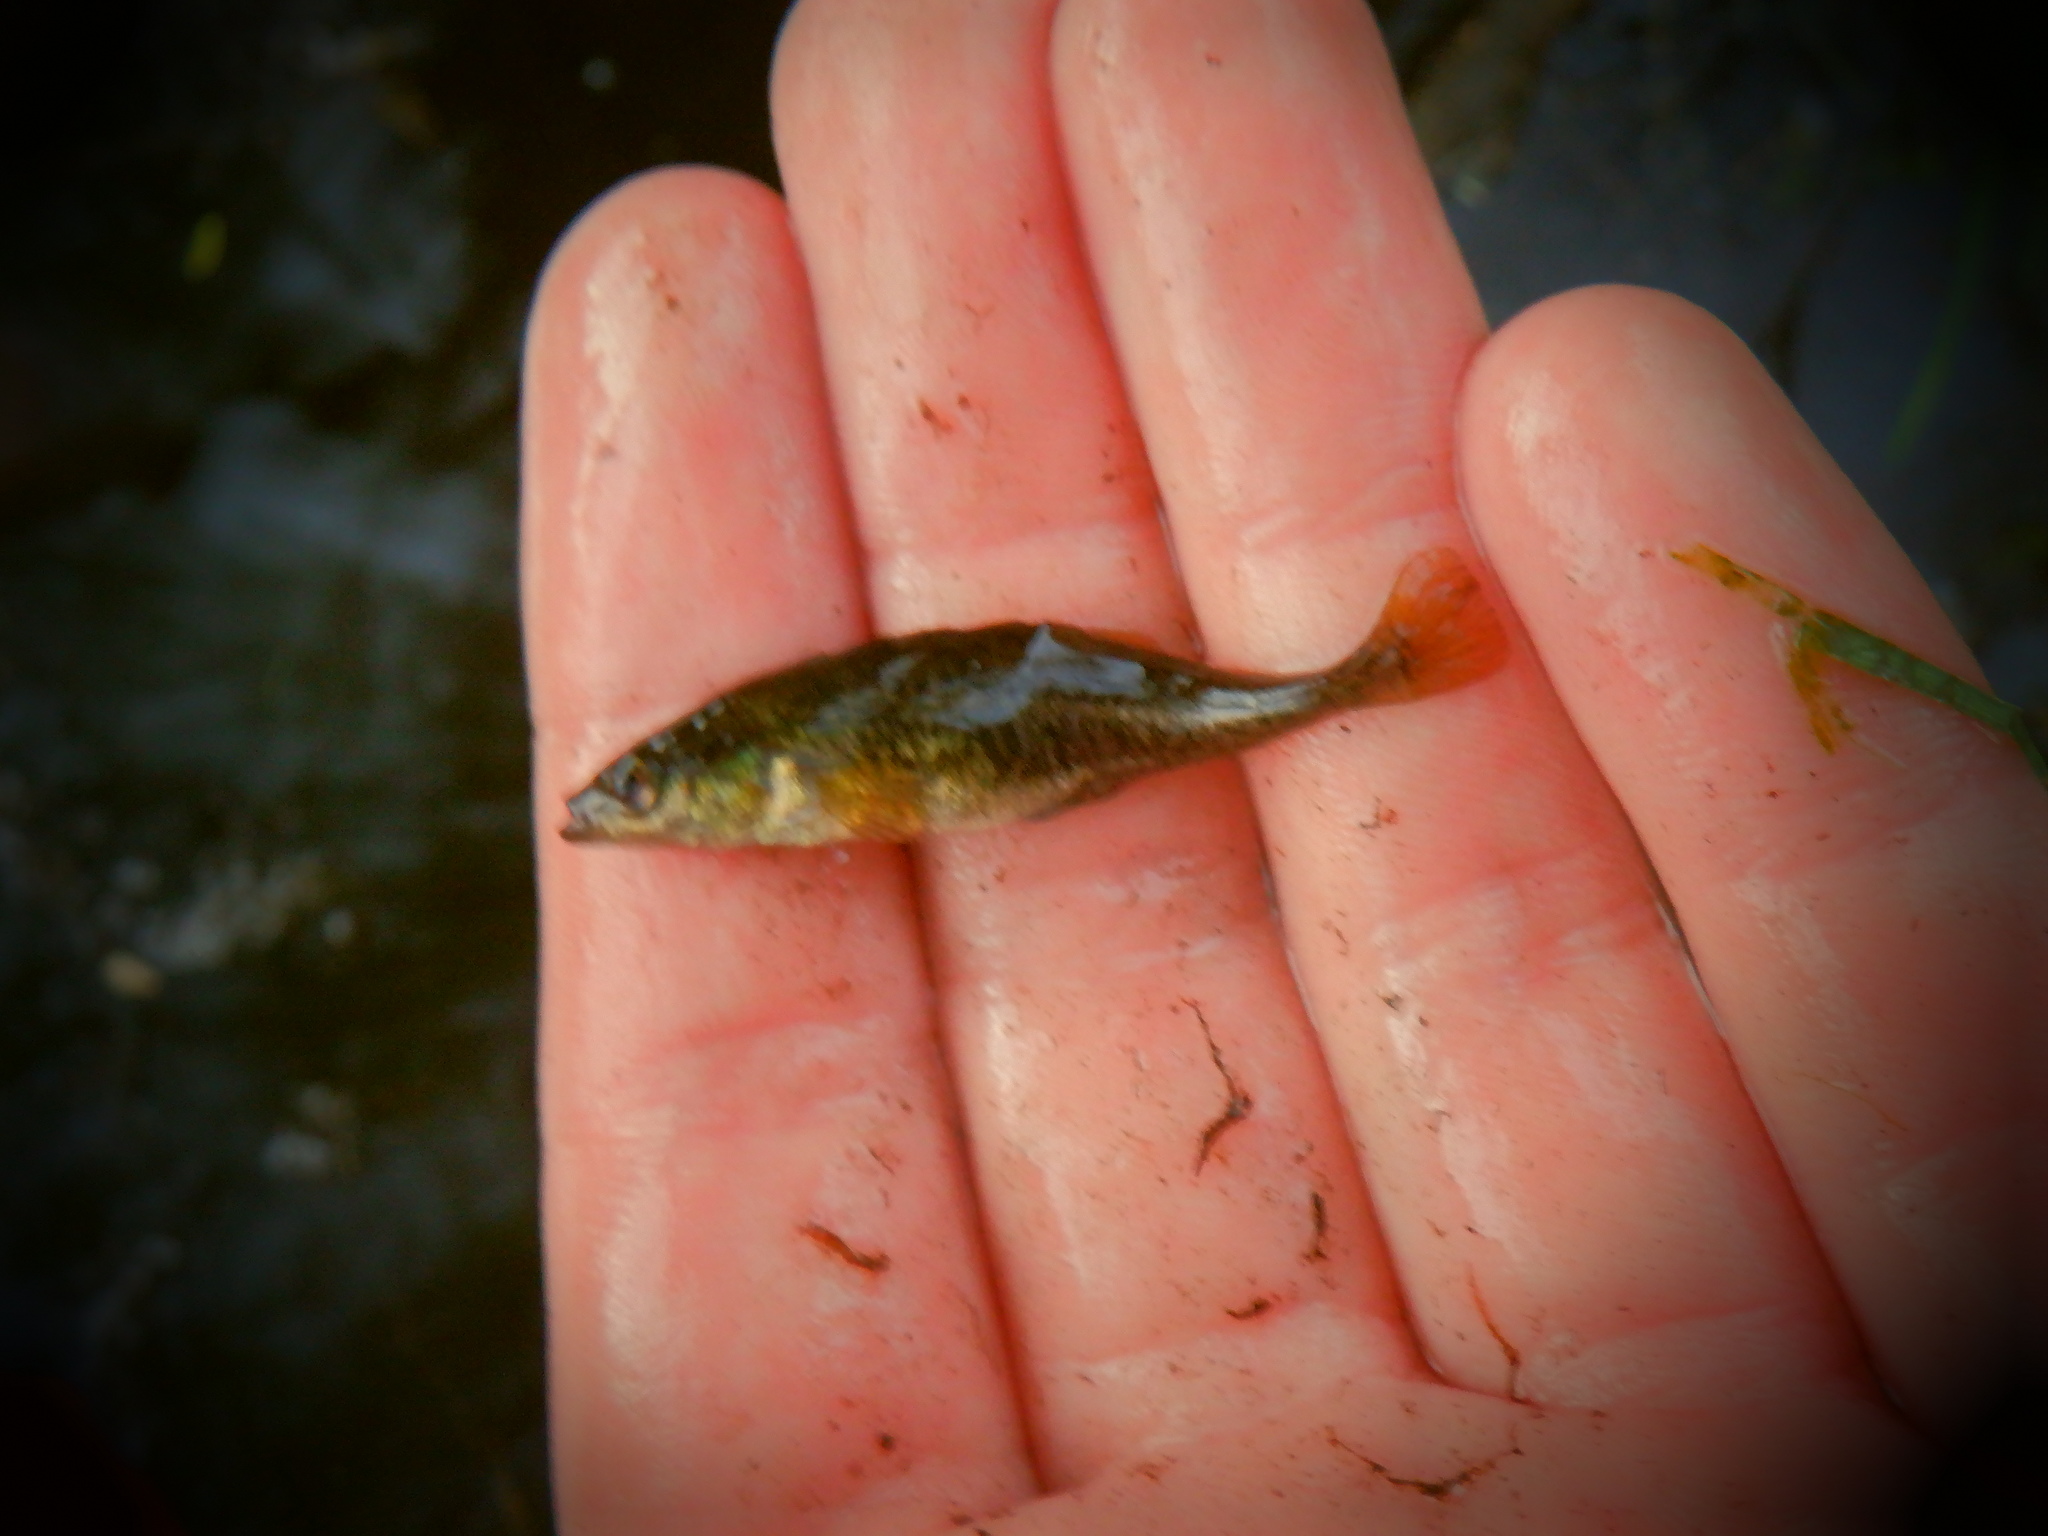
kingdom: Animalia
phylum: Chordata
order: Gasterosteiformes
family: Gasterosteidae
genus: Culaea
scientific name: Culaea inconstans
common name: Brook stickleback
